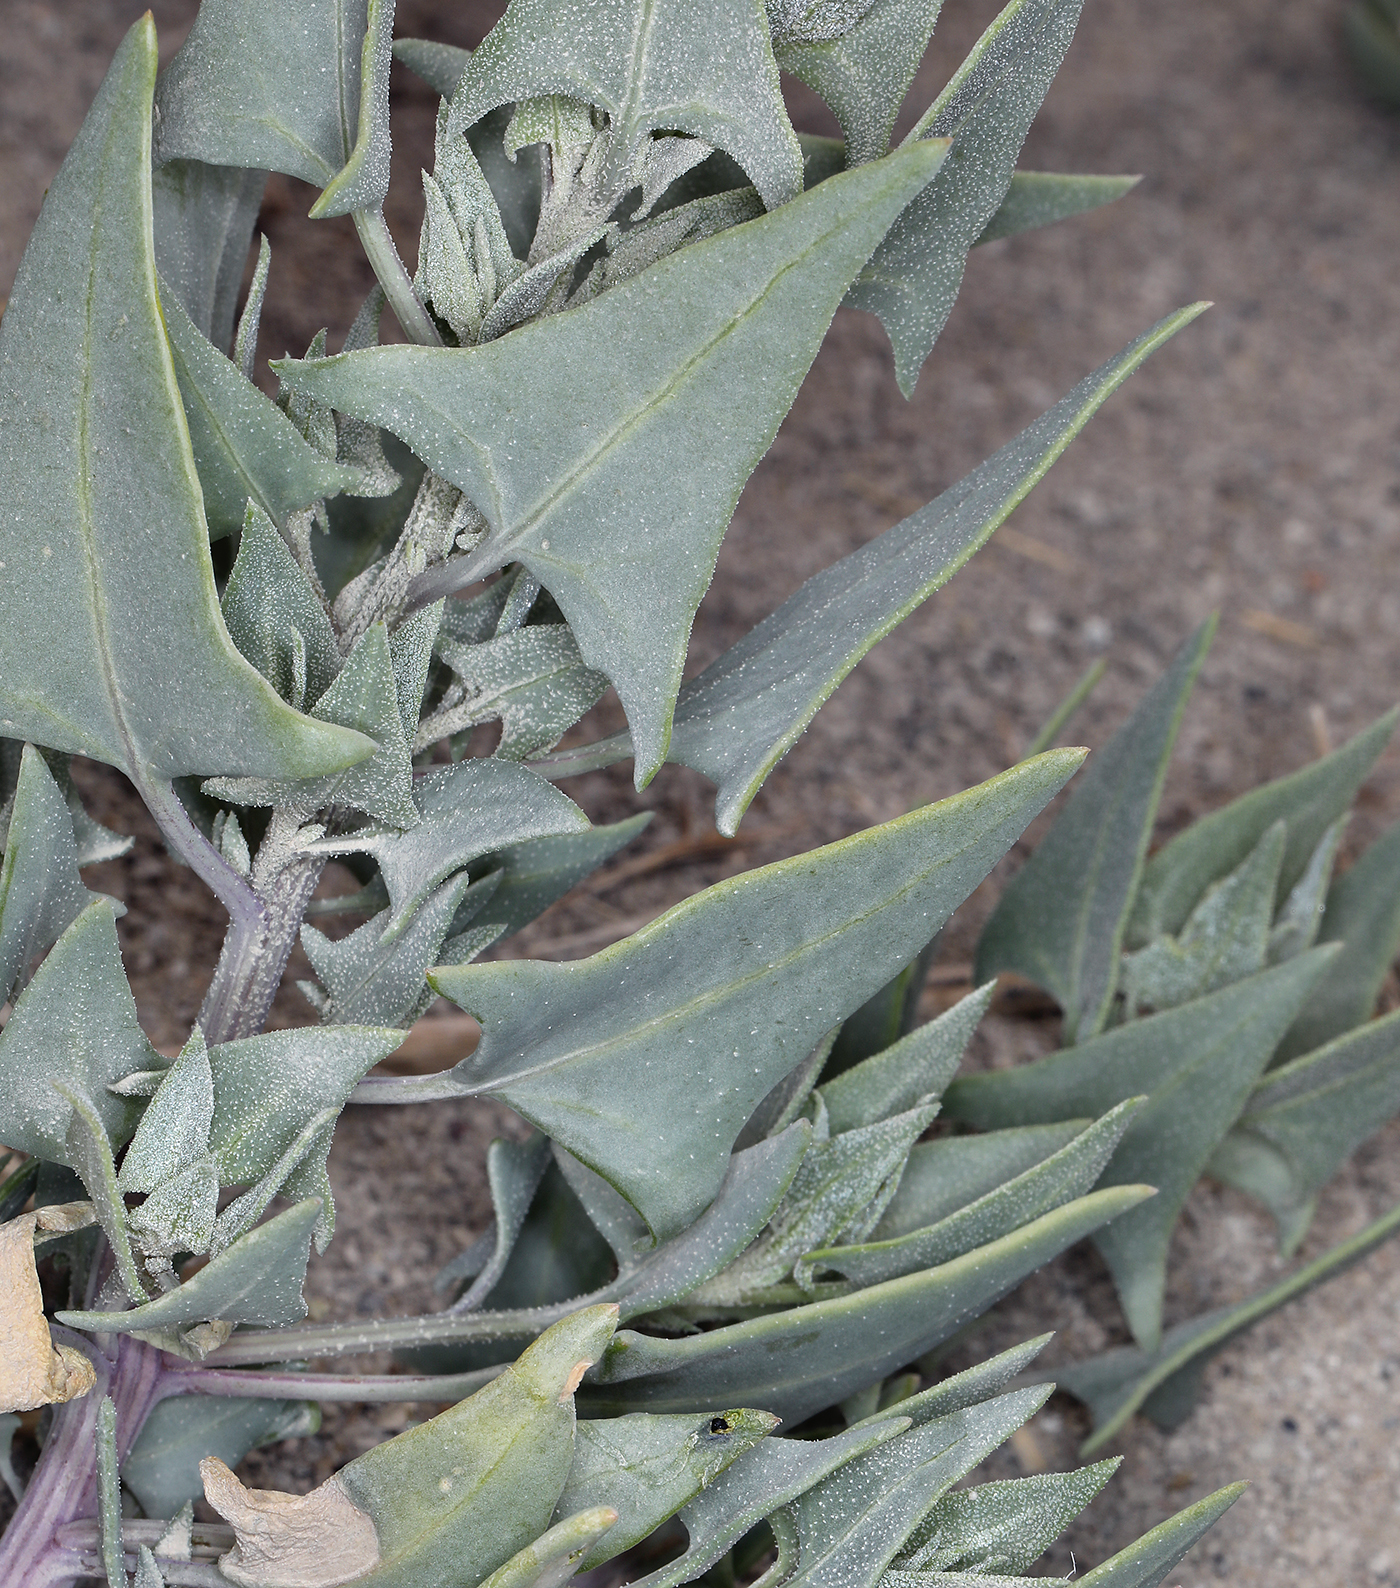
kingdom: Plantae
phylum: Tracheophyta
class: Magnoliopsida
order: Caryophyllales
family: Amaranthaceae
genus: Stutzia
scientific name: Stutzia covillei
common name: Coville's orach
